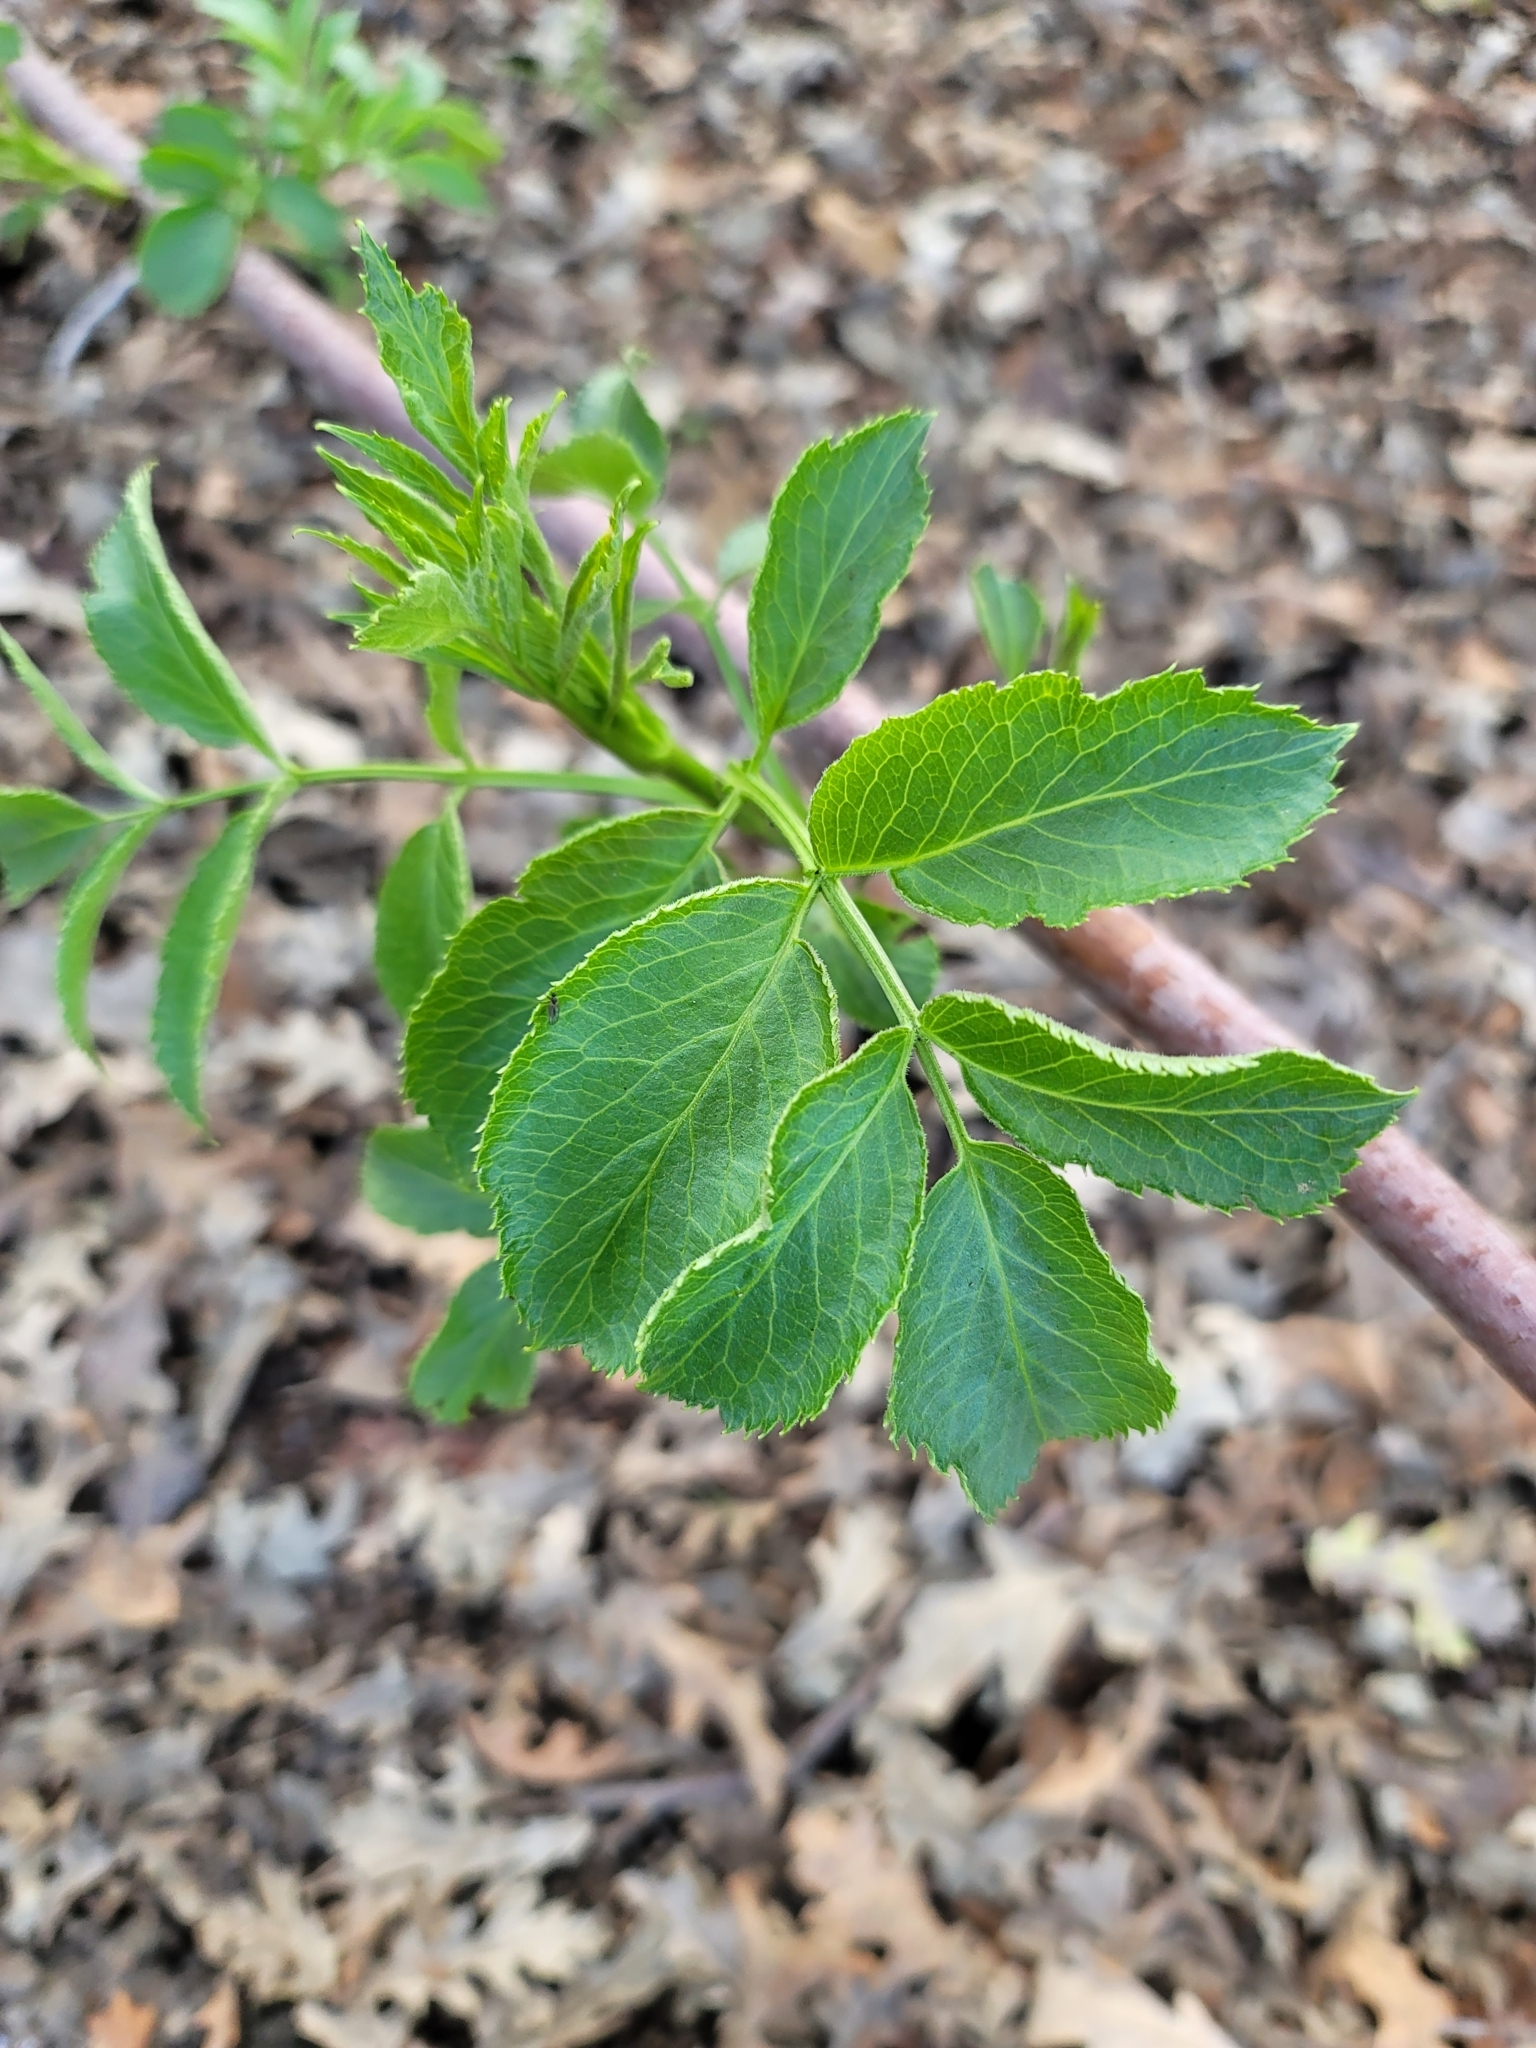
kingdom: Plantae
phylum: Tracheophyta
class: Magnoliopsida
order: Dipsacales
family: Viburnaceae
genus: Sambucus
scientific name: Sambucus cerulea
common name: Blue elder
